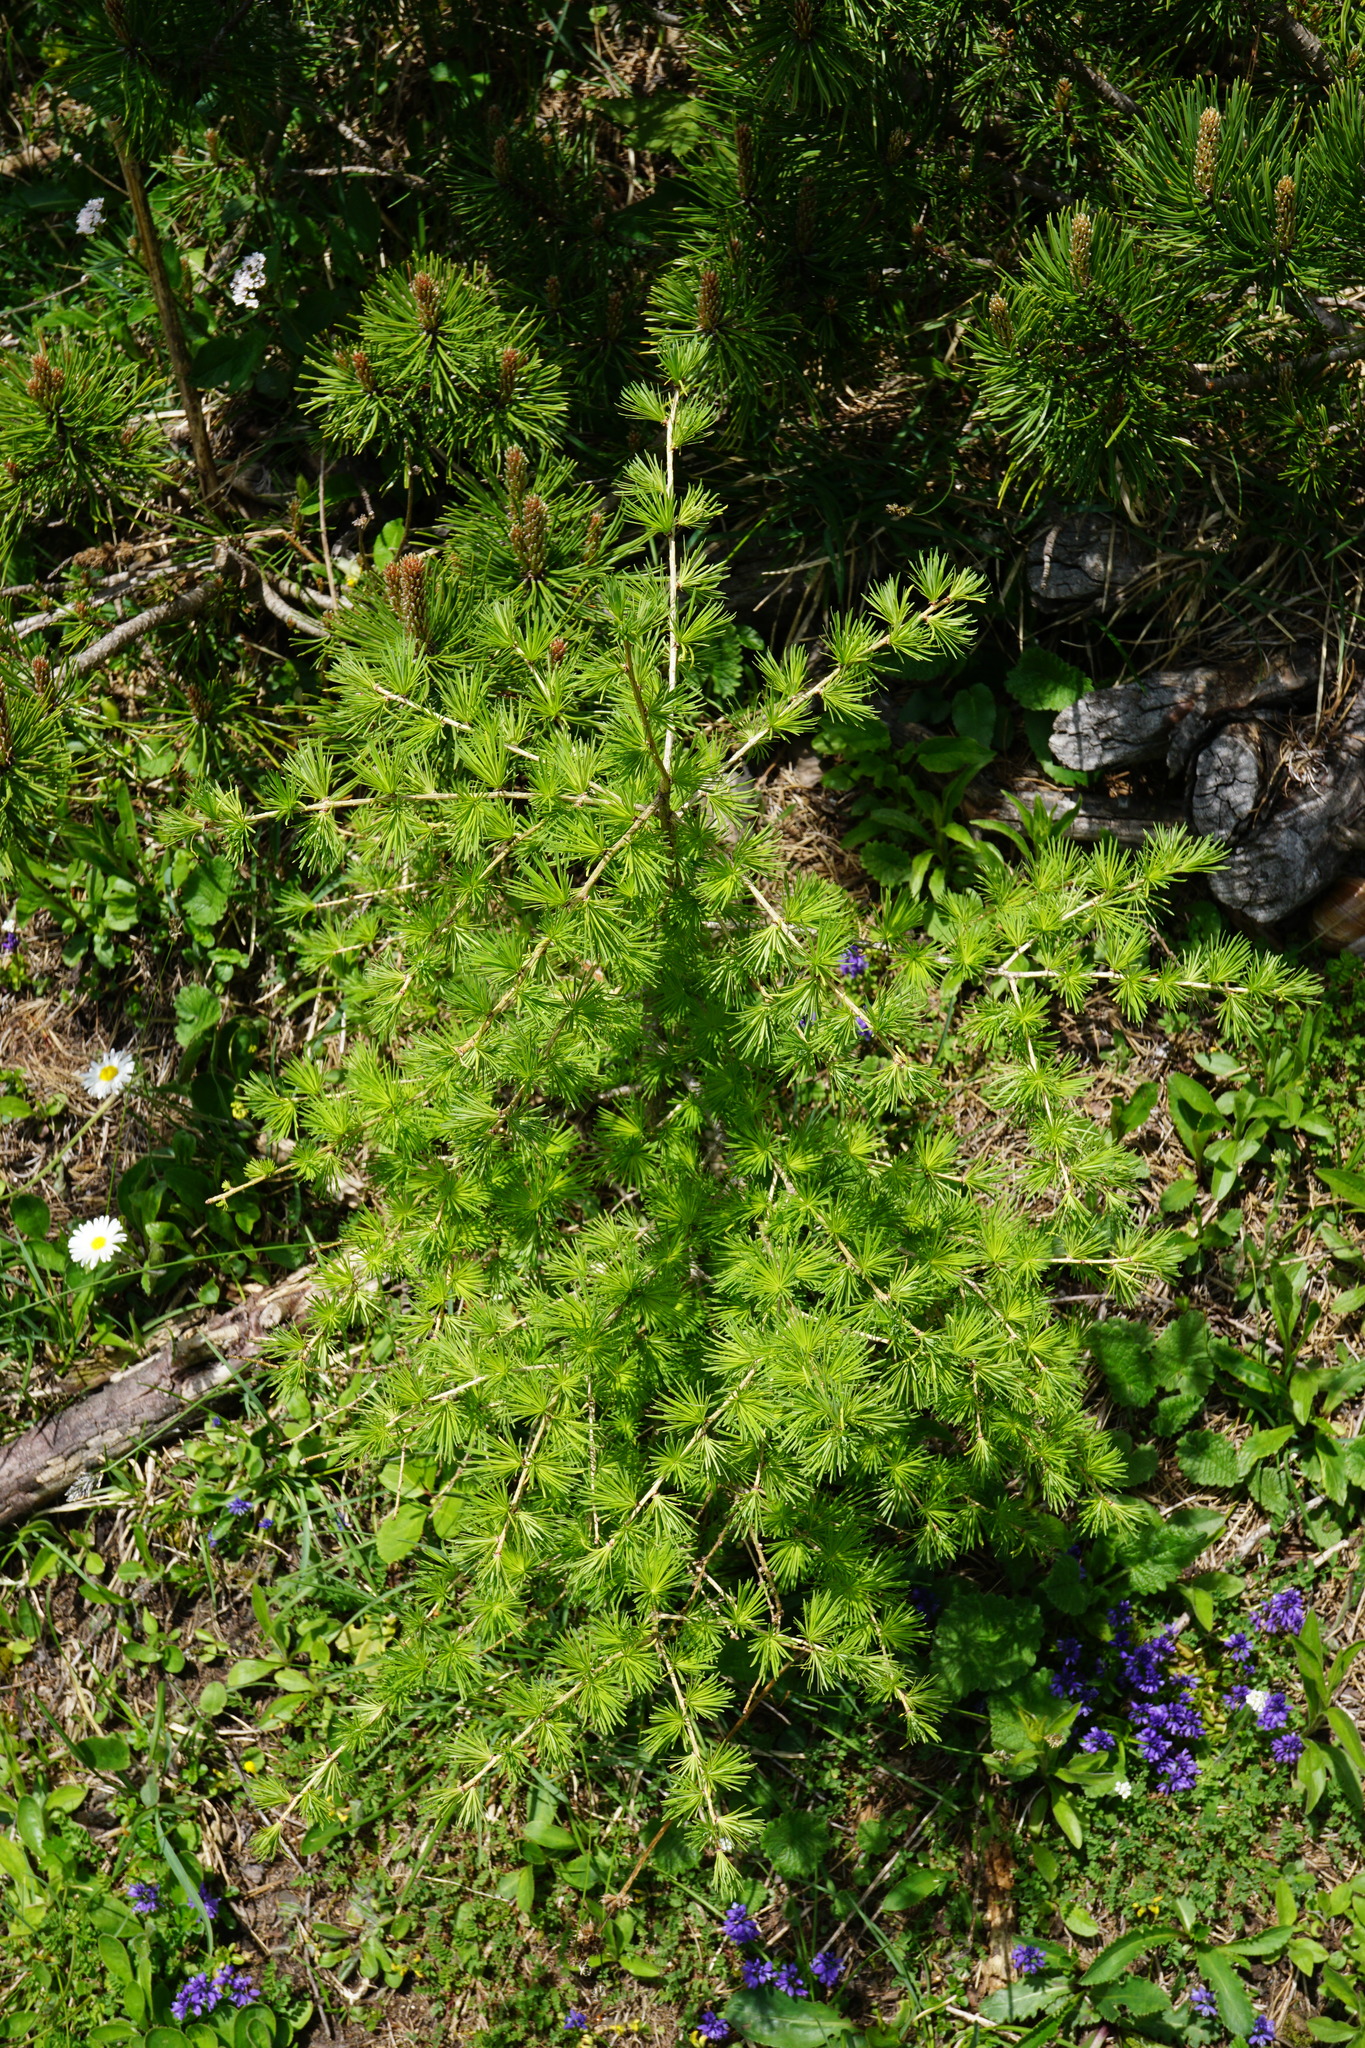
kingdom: Plantae
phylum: Tracheophyta
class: Pinopsida
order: Pinales
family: Pinaceae
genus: Larix
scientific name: Larix decidua
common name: European larch
